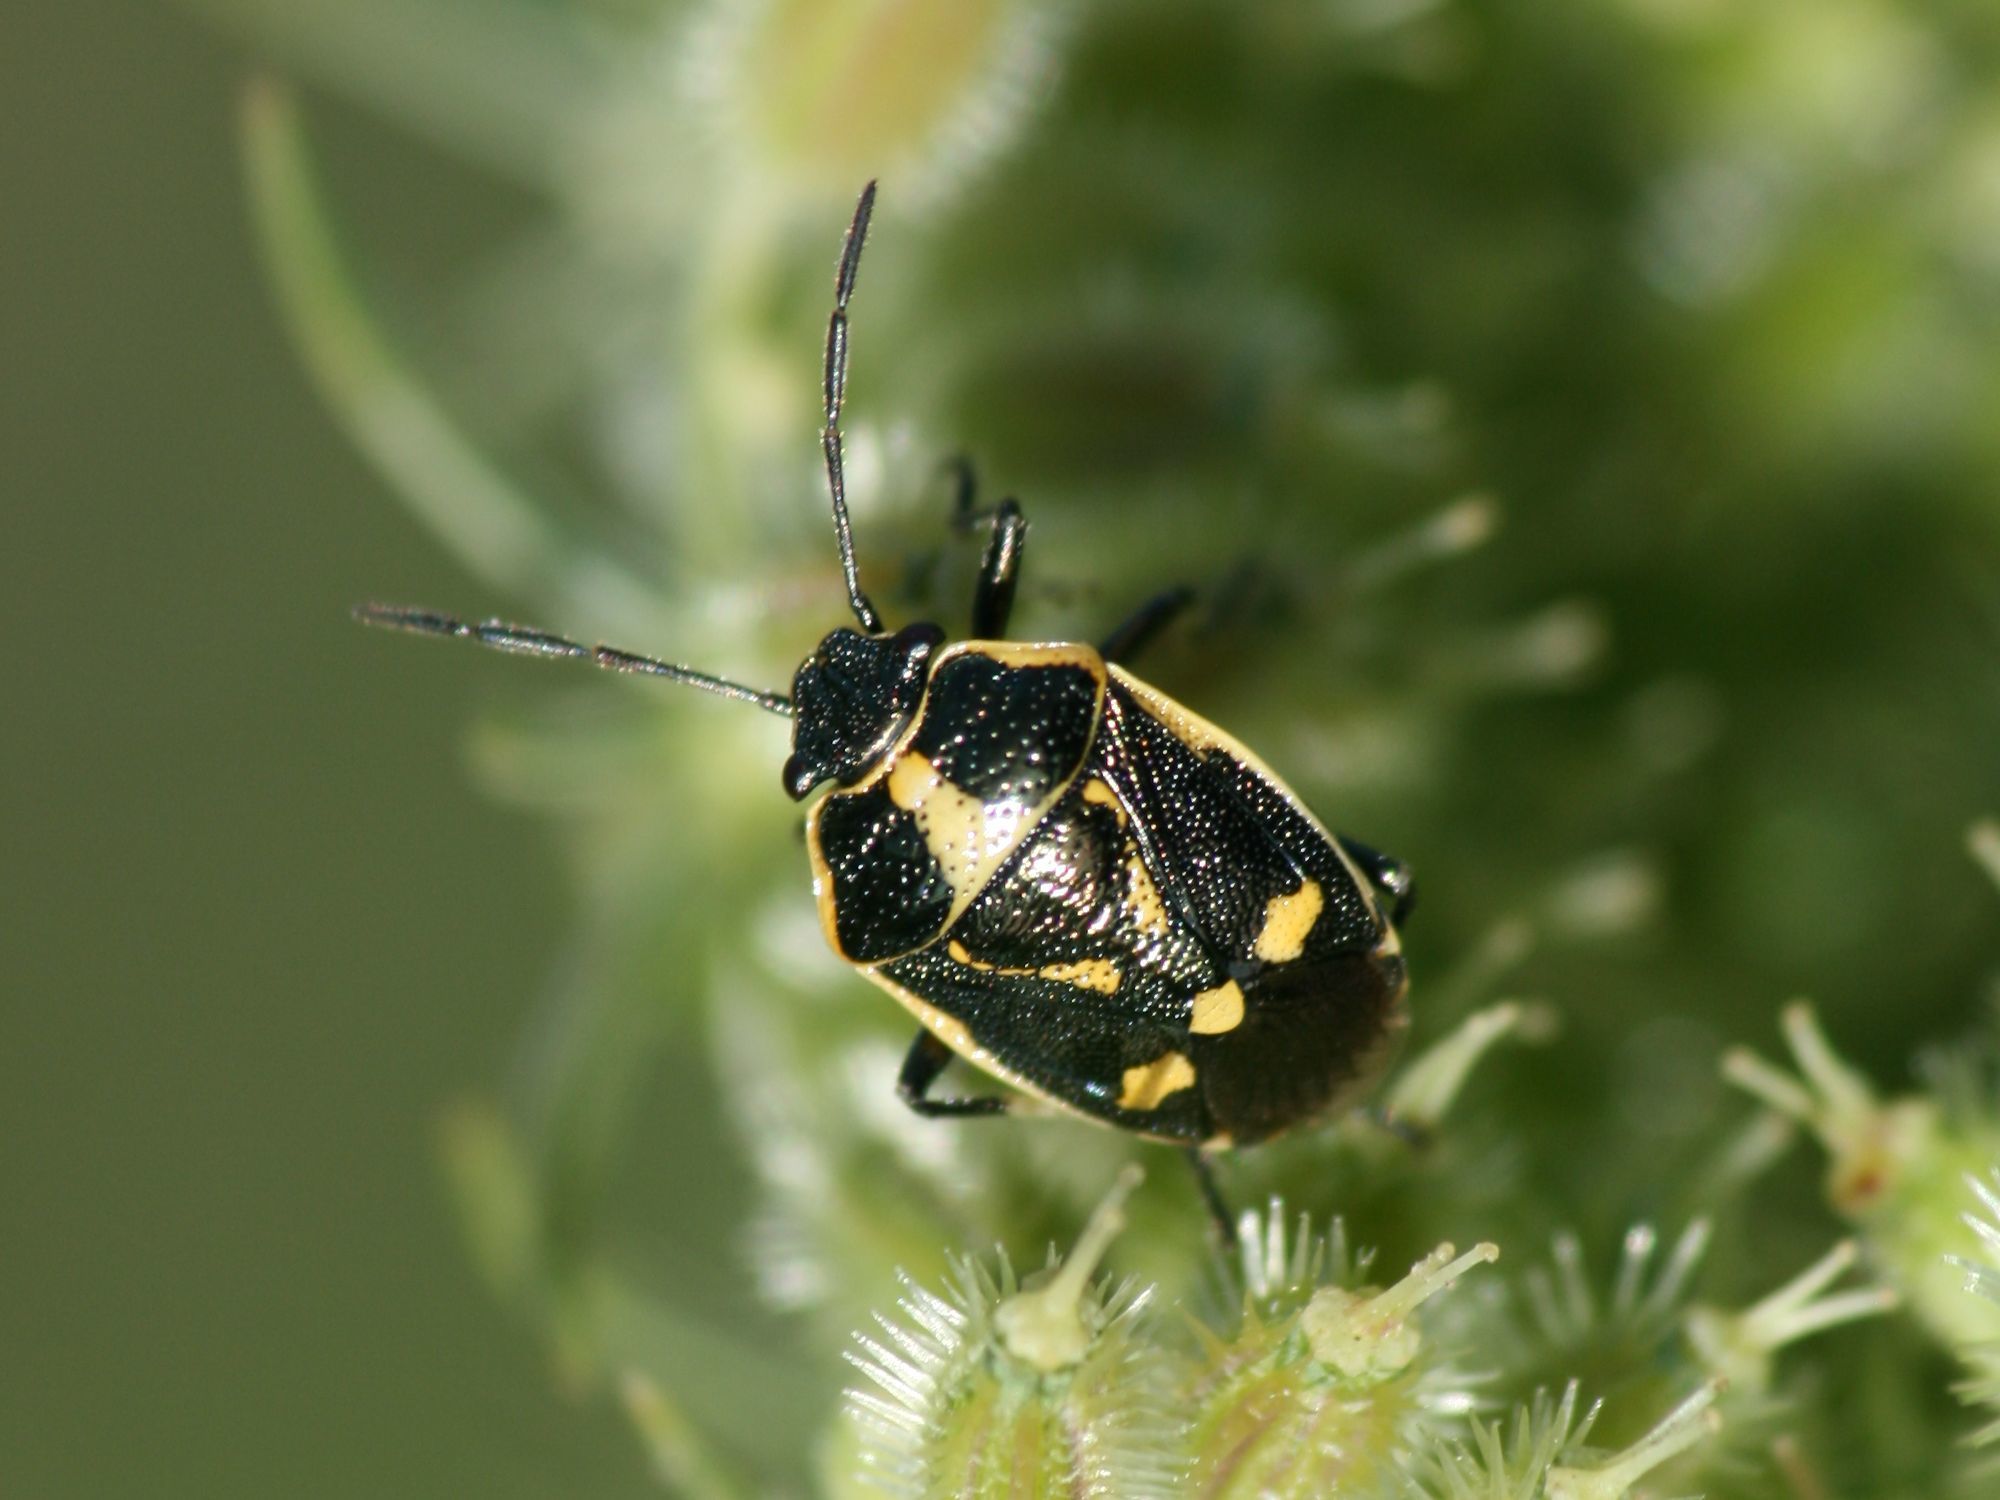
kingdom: Animalia
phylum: Arthropoda
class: Insecta
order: Hemiptera
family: Pentatomidae
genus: Eurydema
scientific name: Eurydema oleracea
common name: Cabbage bug
